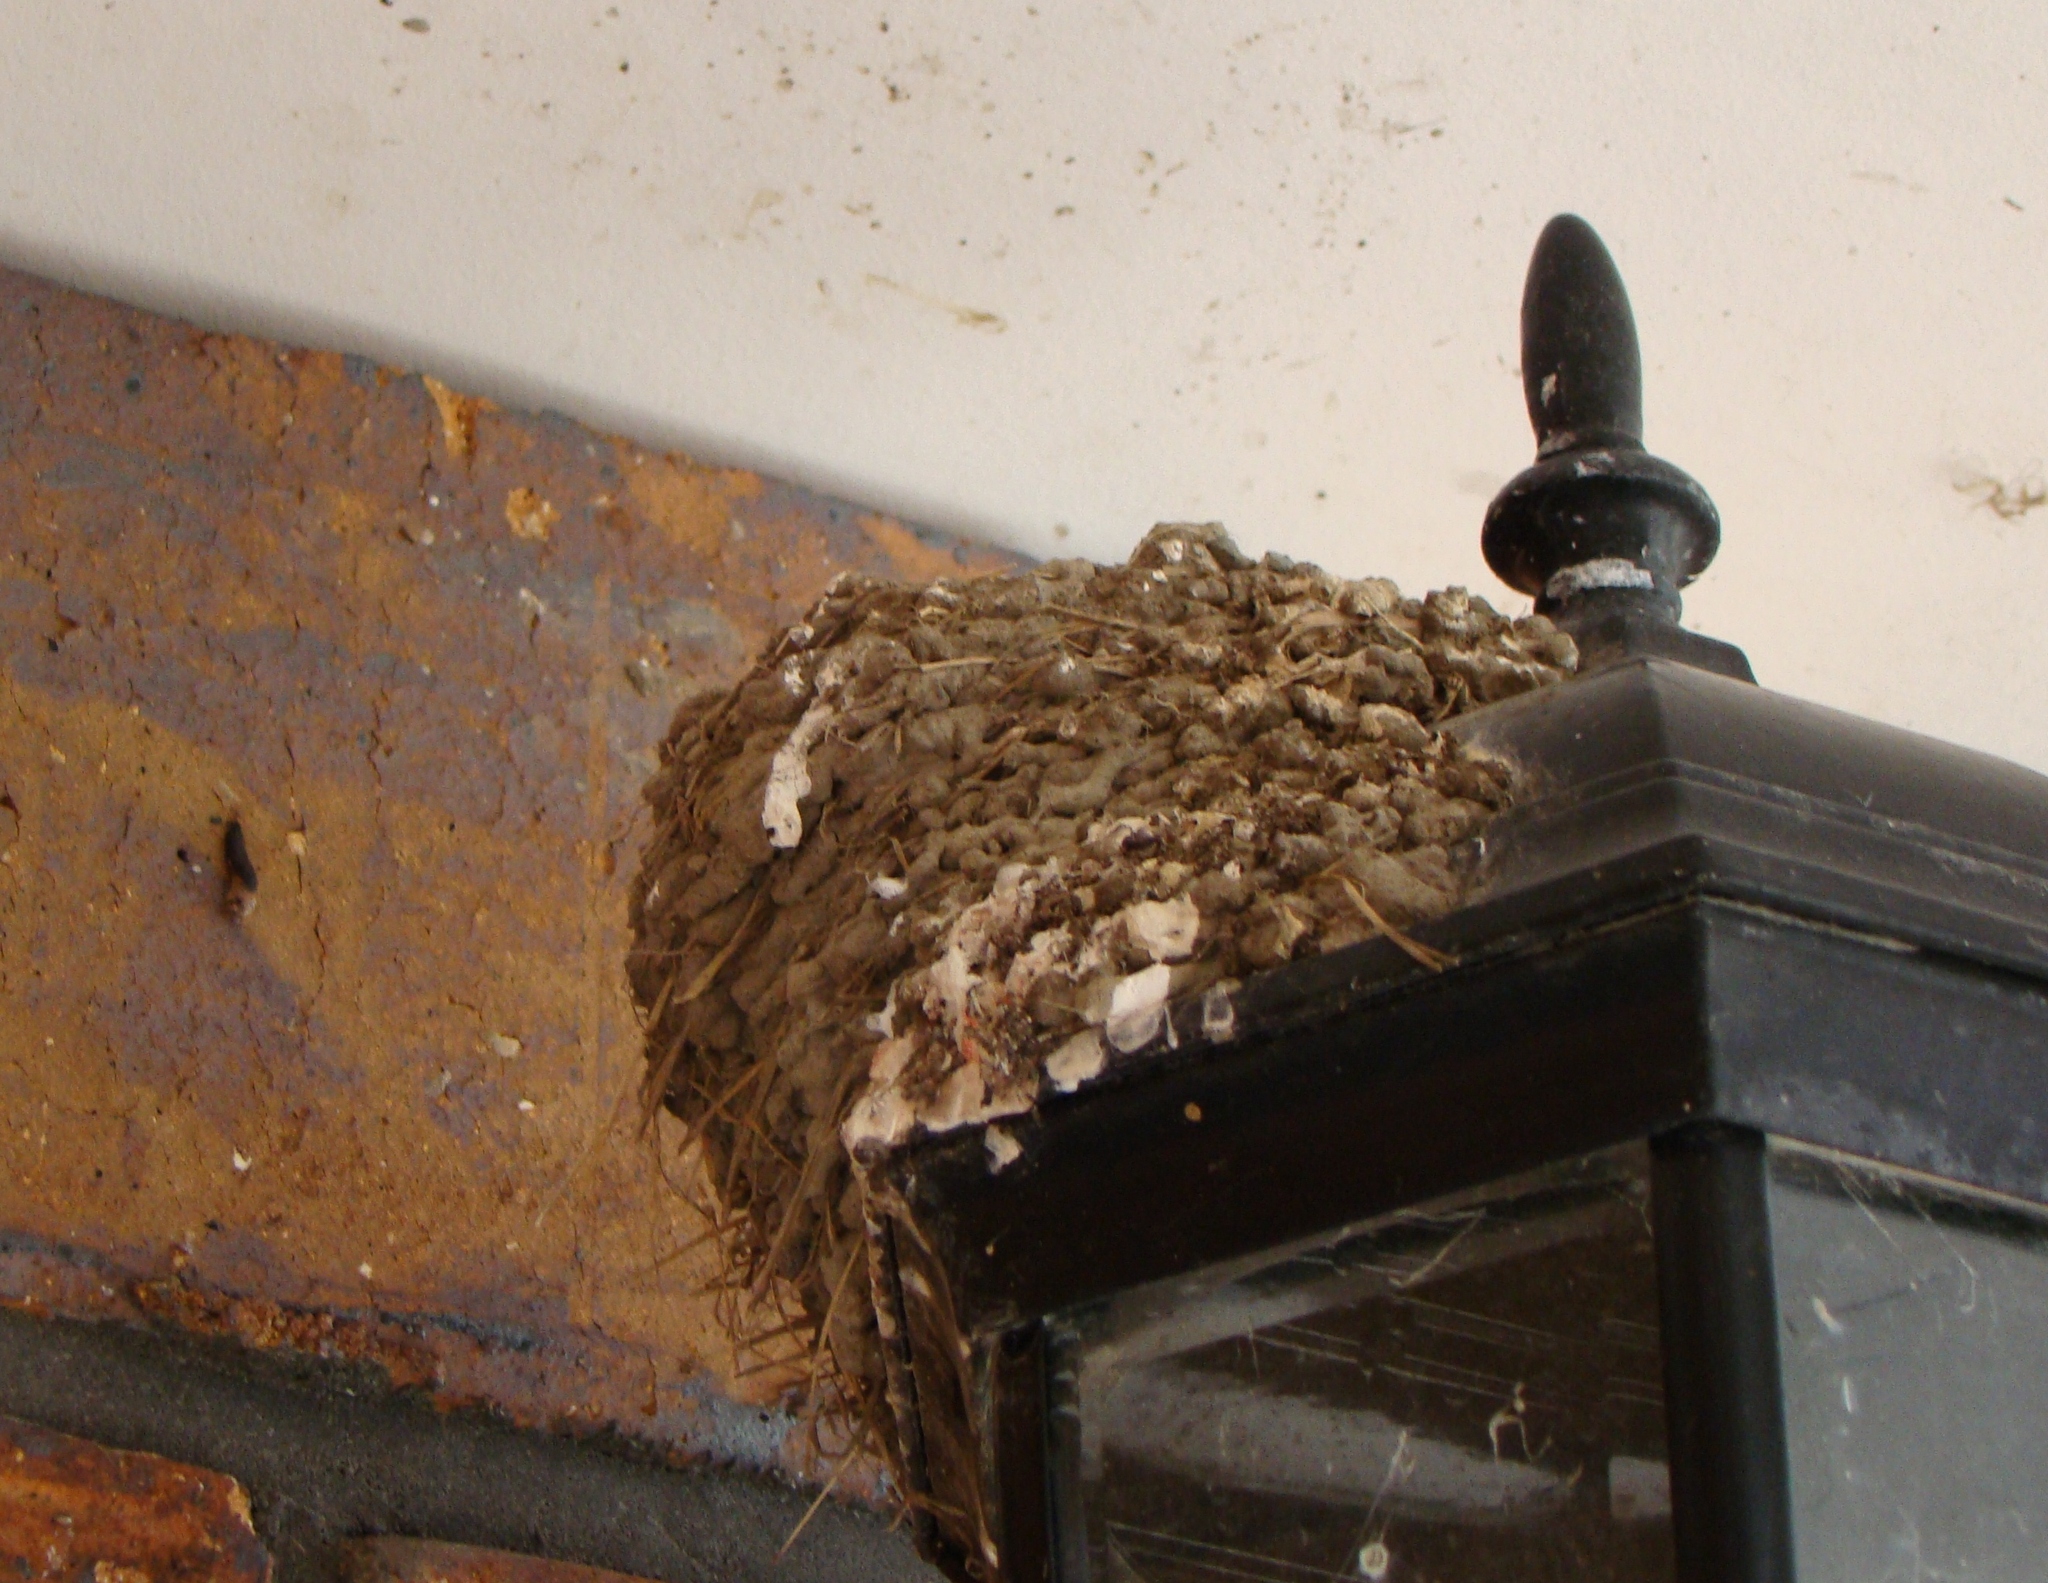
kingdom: Animalia
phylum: Chordata
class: Aves
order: Passeriformes
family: Hirundinidae
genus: Hirundo
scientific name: Hirundo neoxena
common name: Welcome swallow
